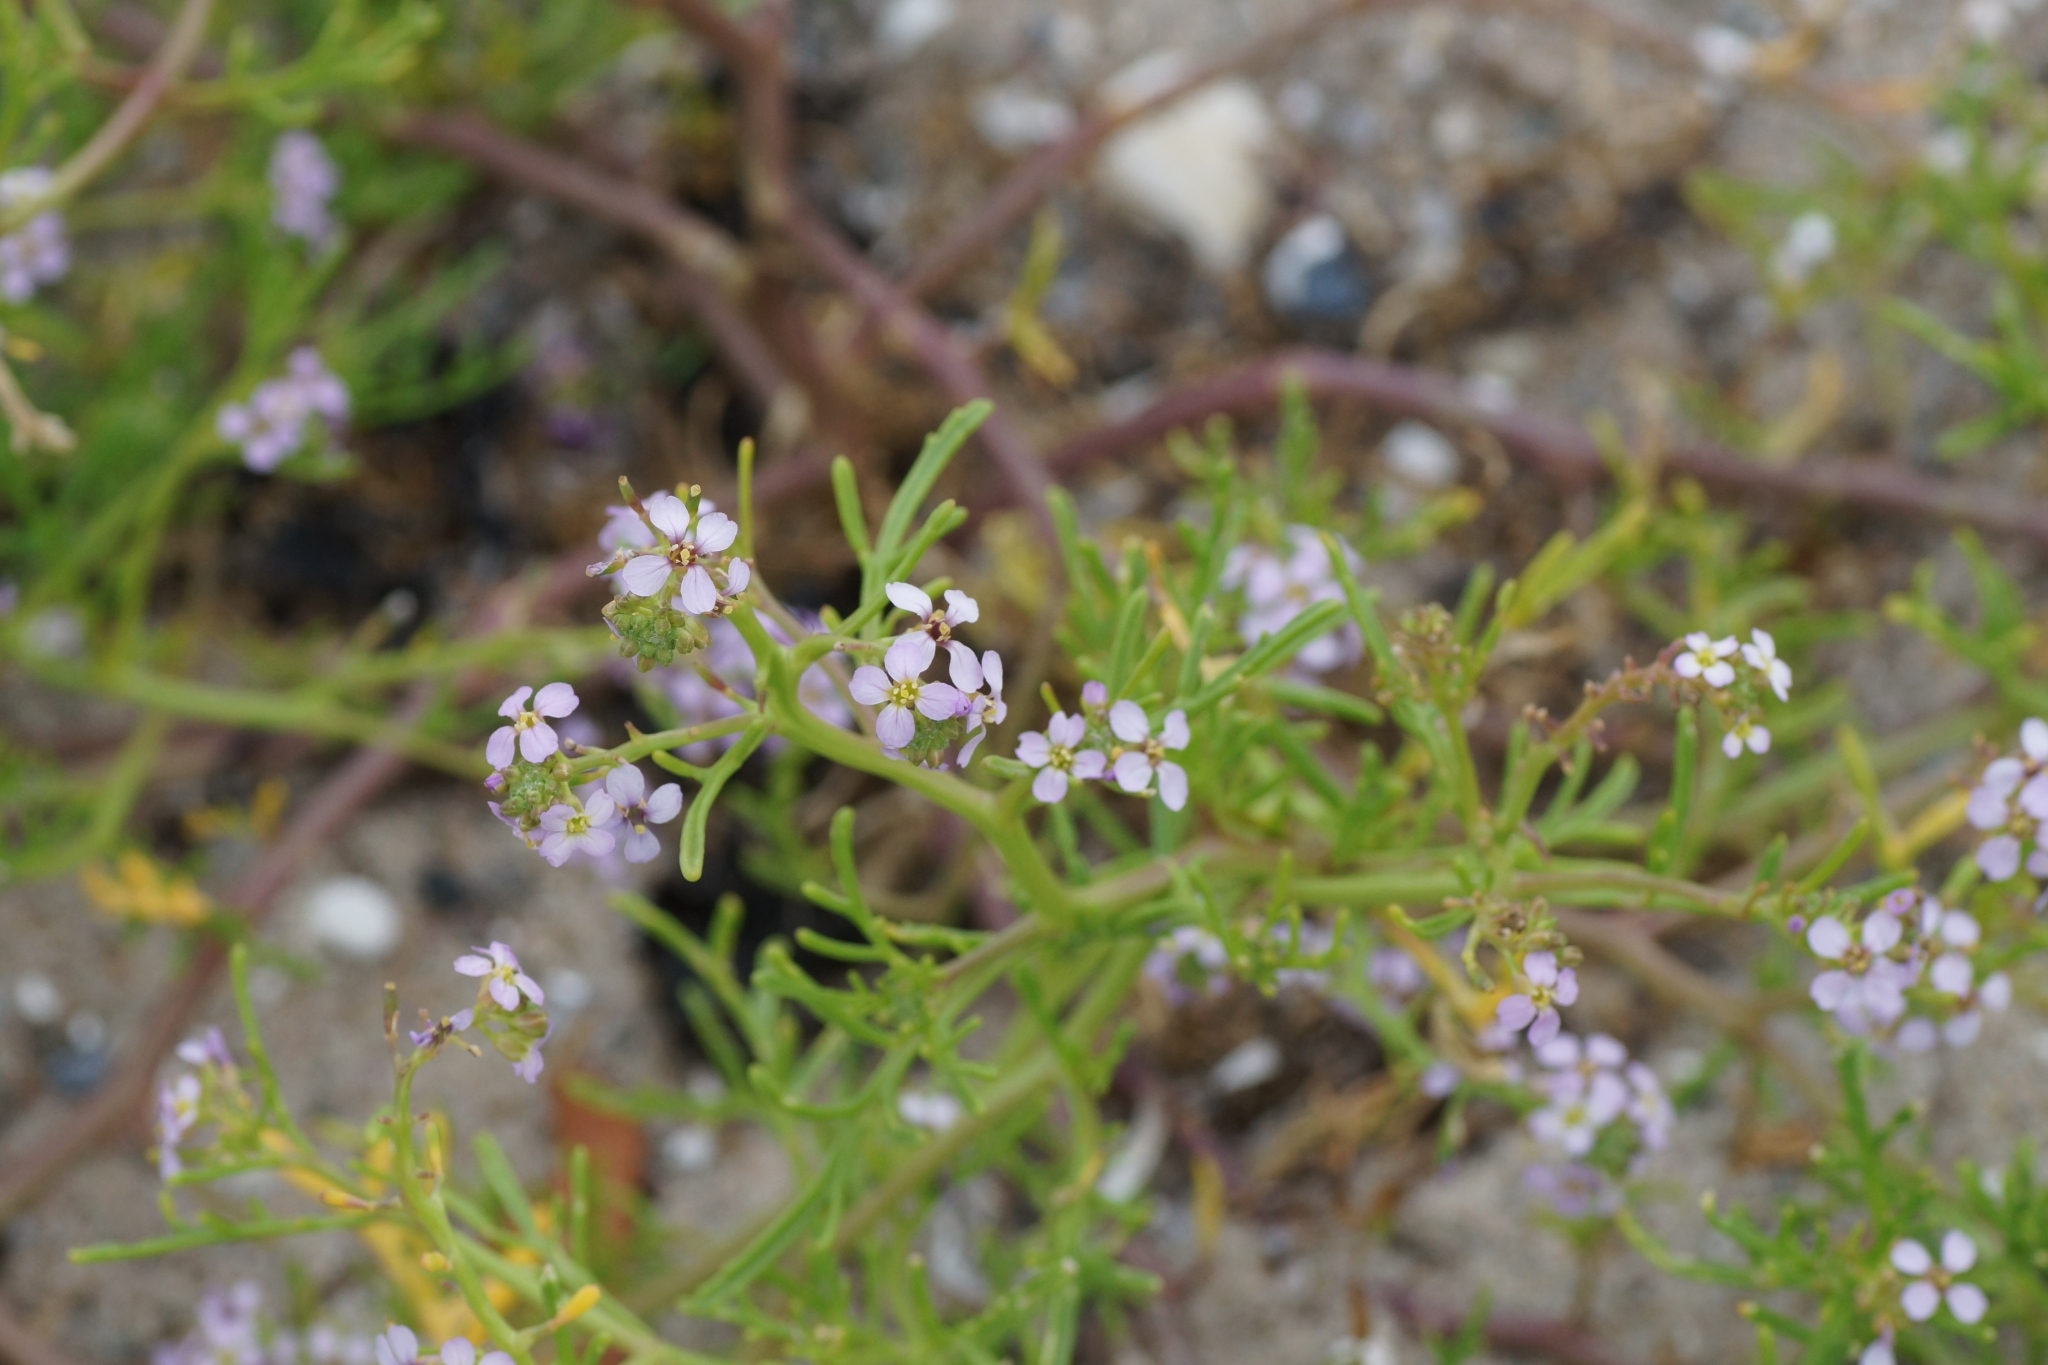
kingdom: Plantae
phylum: Tracheophyta
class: Magnoliopsida
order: Brassicales
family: Brassicaceae
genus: Cakile
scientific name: Cakile maritima
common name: Sea rocket
